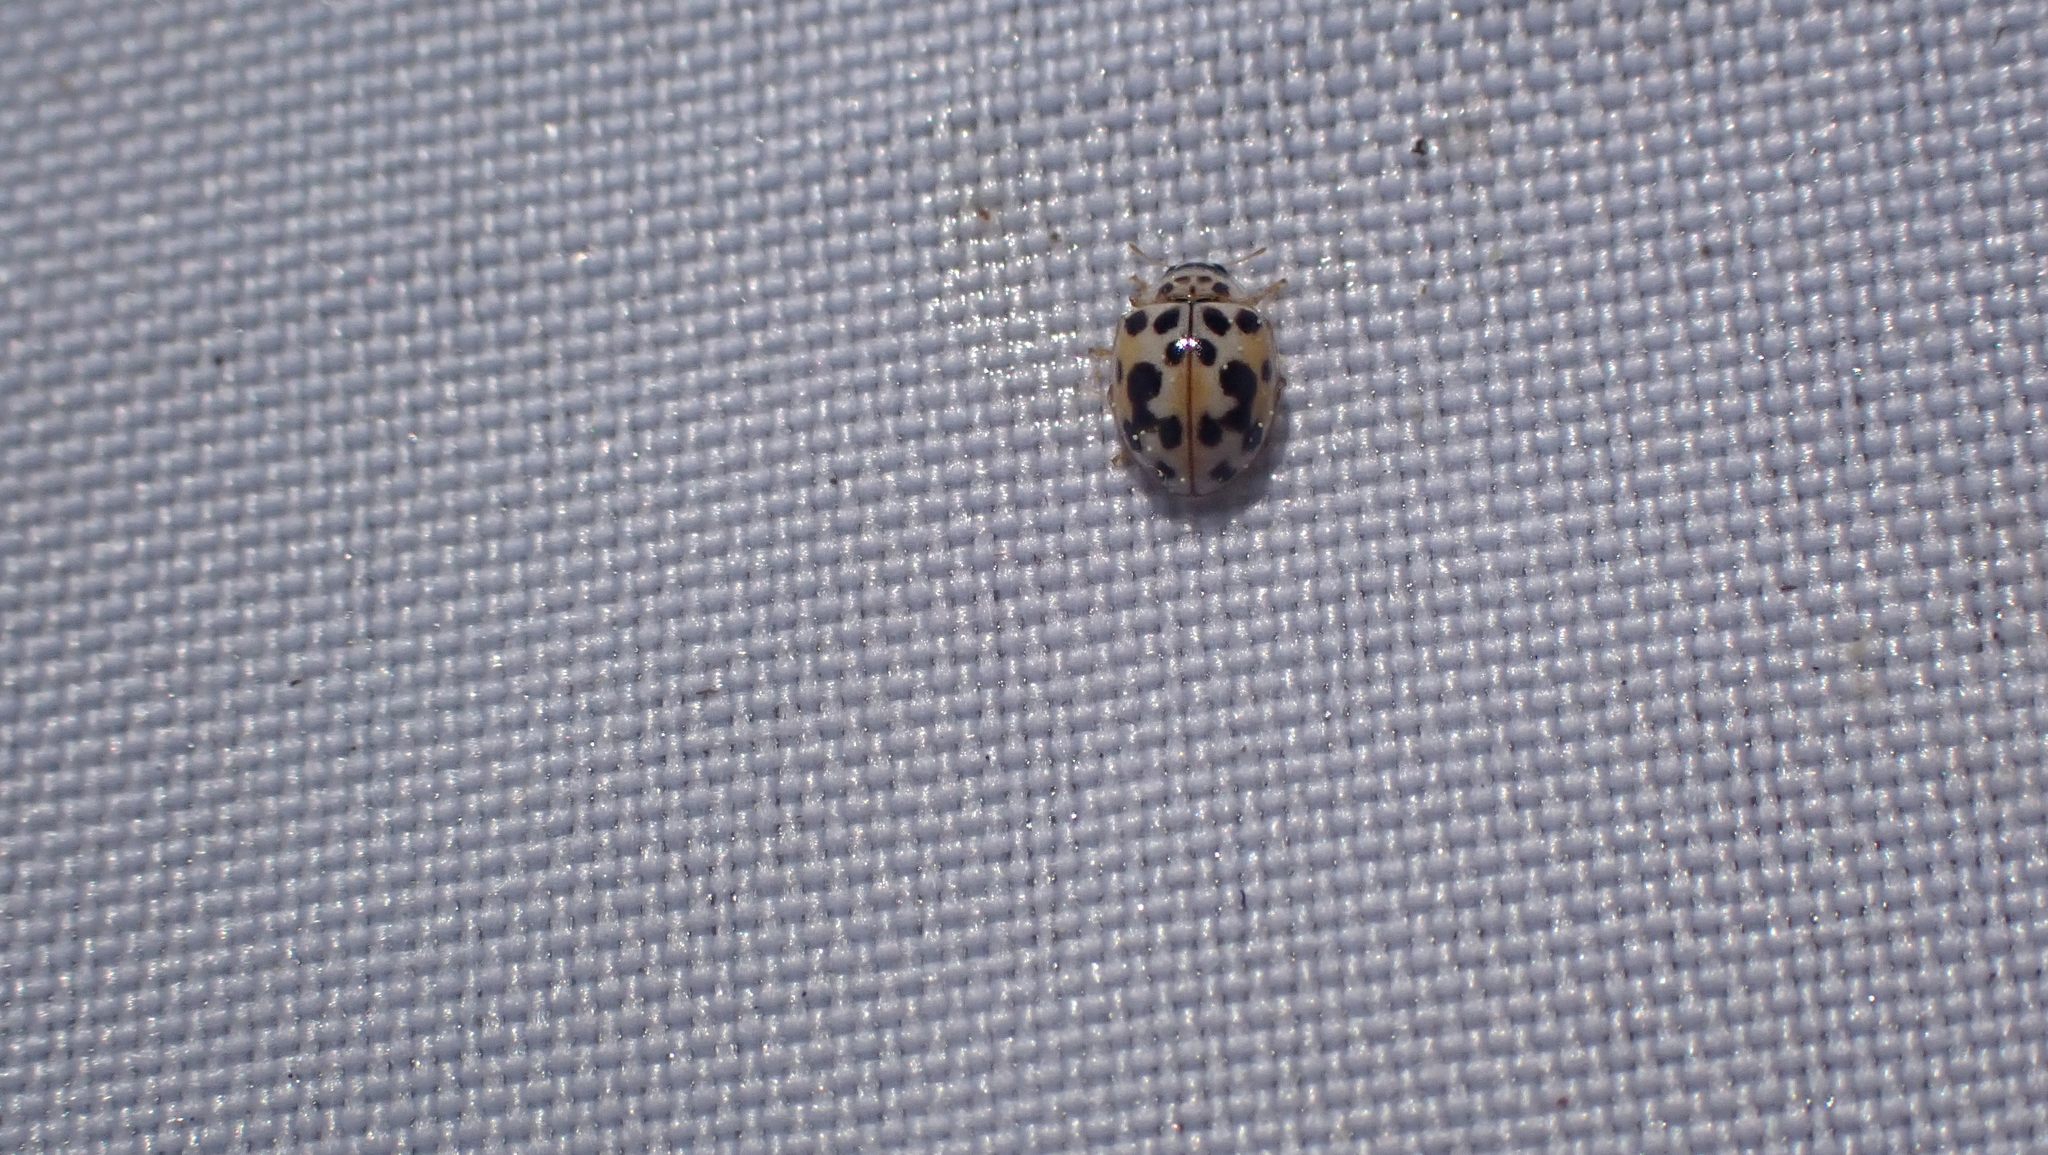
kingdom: Animalia
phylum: Arthropoda
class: Insecta
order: Coleoptera
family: Coccinellidae
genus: Psyllobora
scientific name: Psyllobora vigintimaculata
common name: Ladybird beetle
